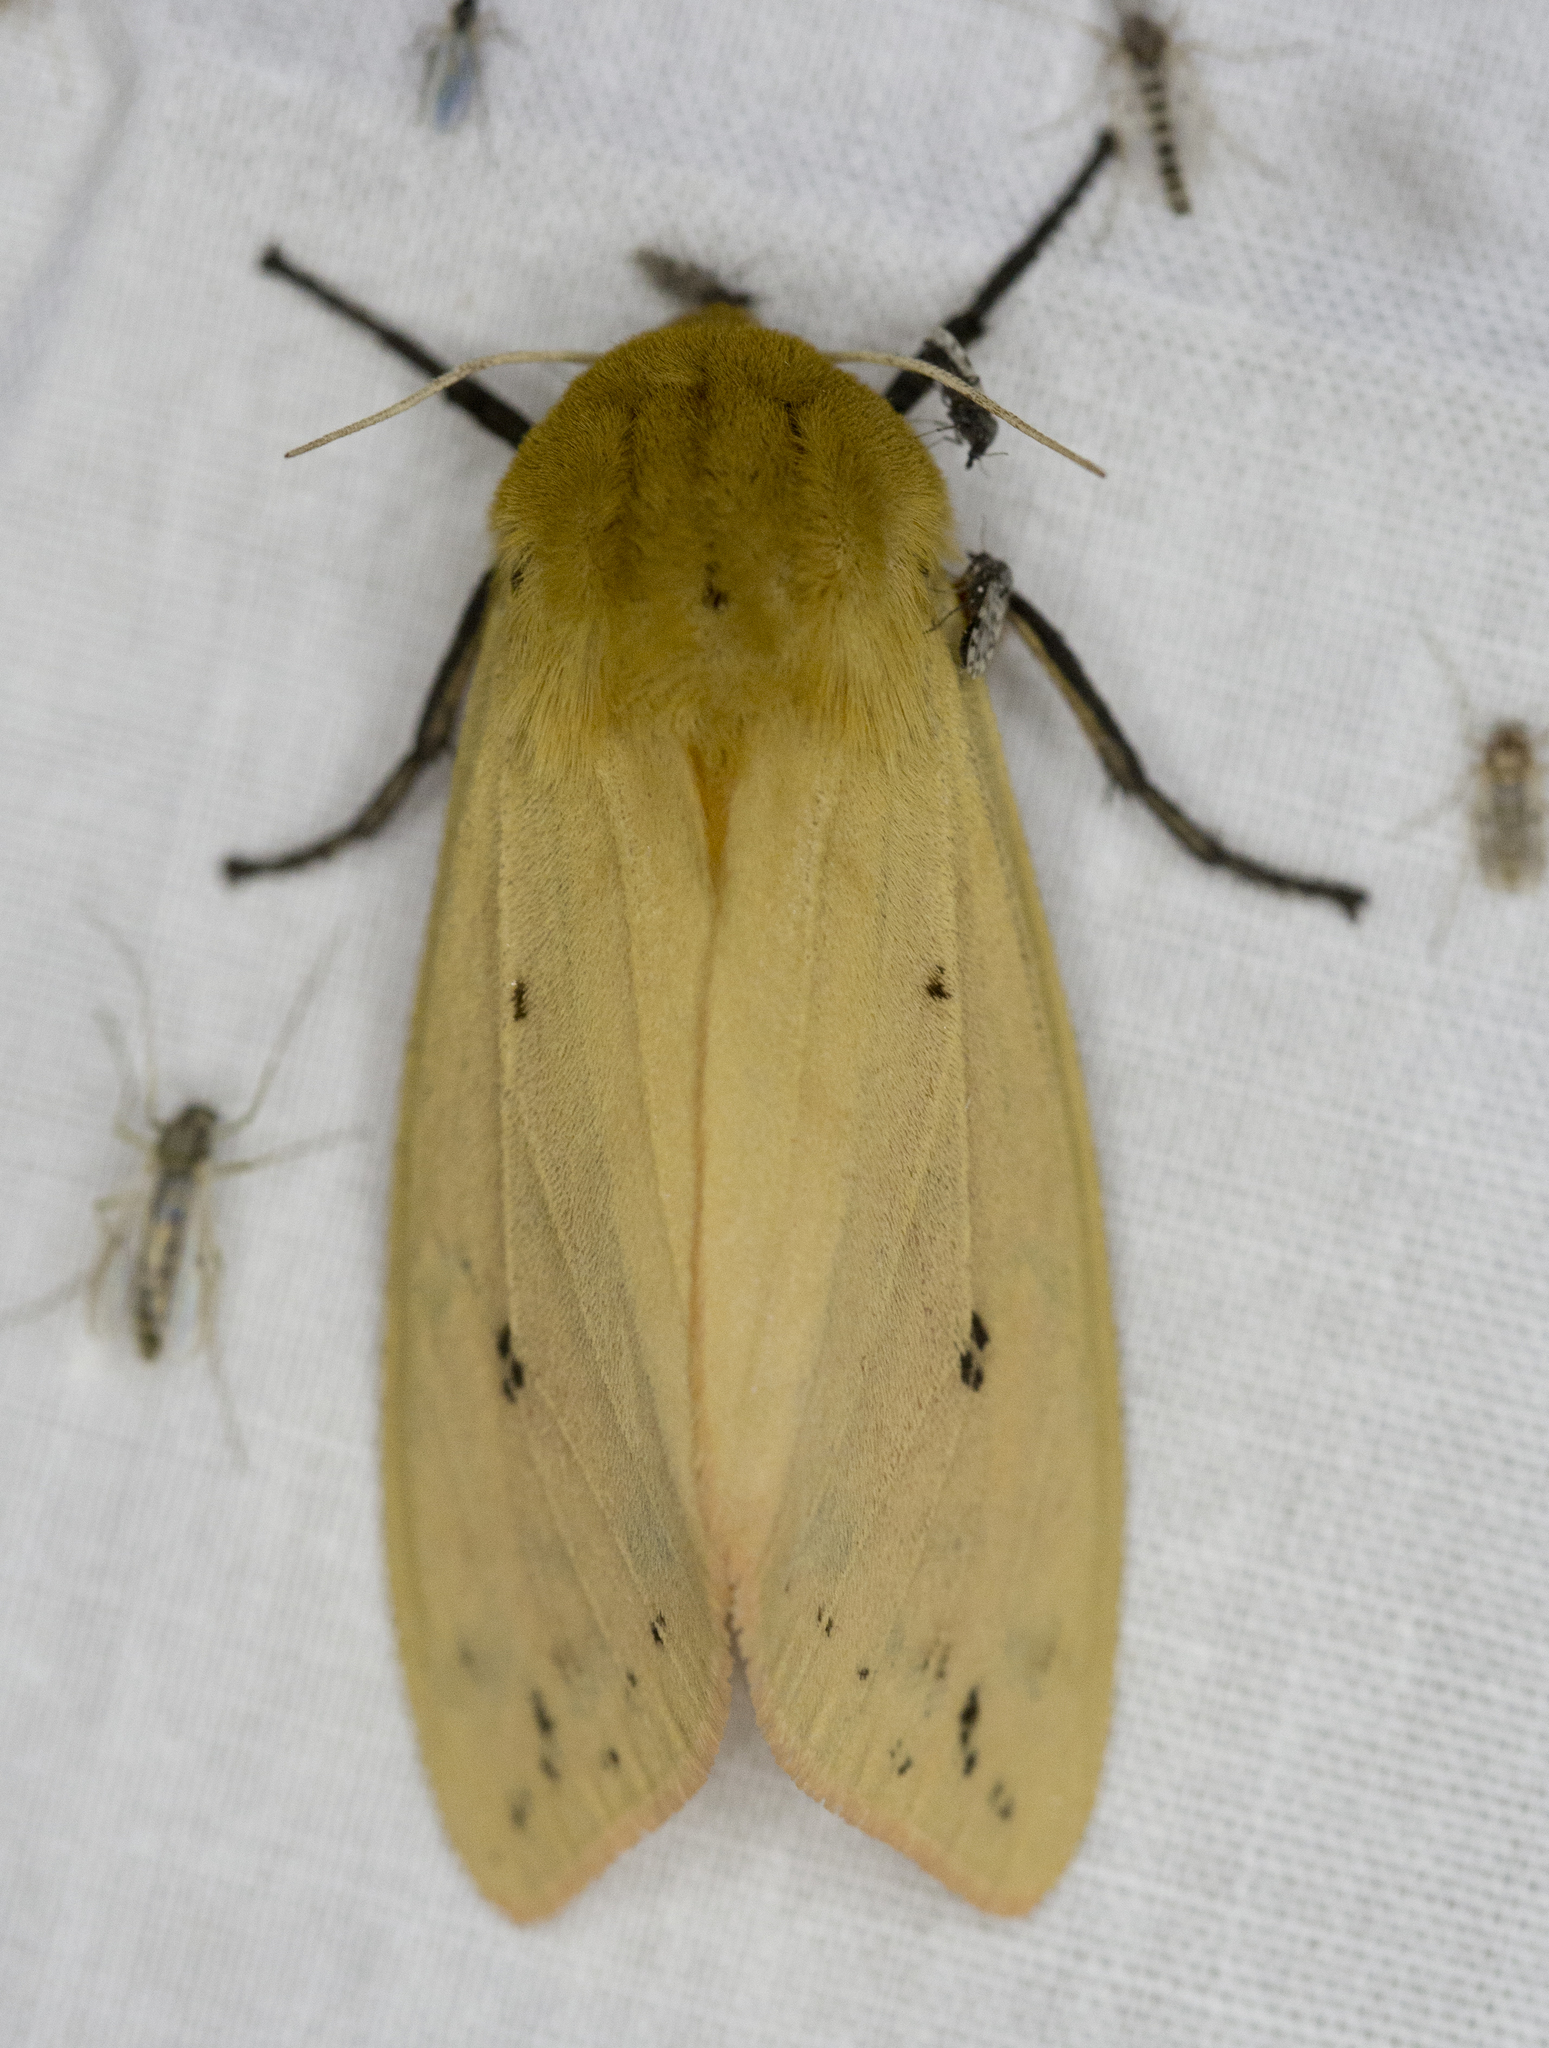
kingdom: Animalia
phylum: Arthropoda
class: Insecta
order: Lepidoptera
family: Erebidae
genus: Pyrrharctia
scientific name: Pyrrharctia isabella
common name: Isabella tiger moth
